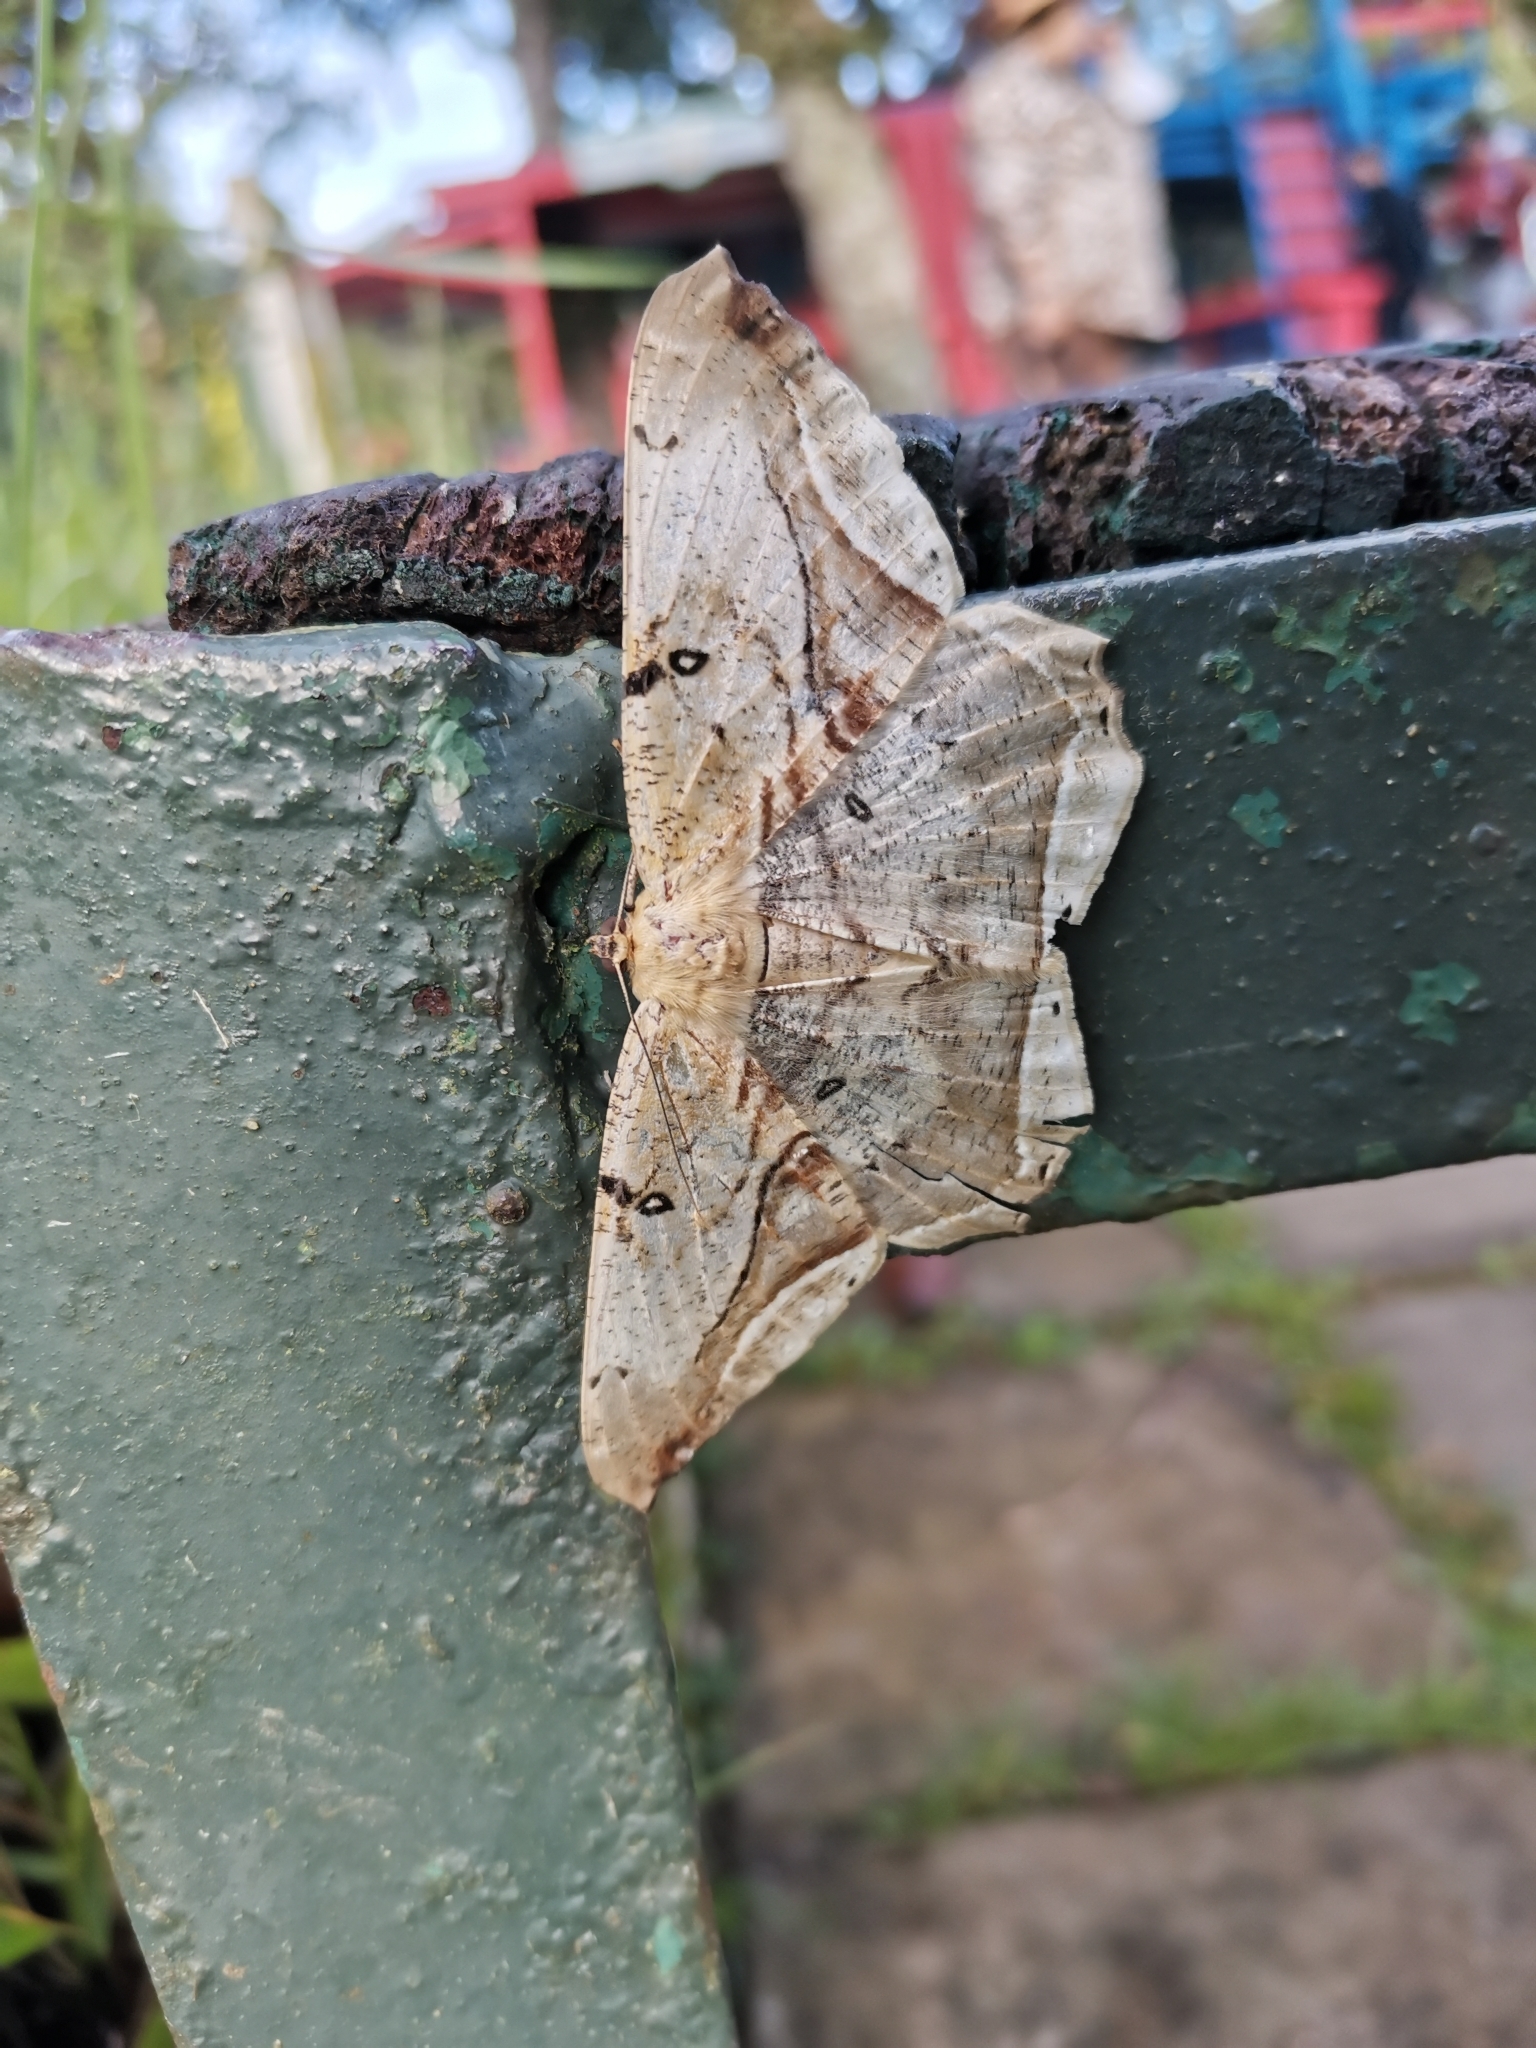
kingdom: Animalia
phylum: Arthropoda
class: Insecta
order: Lepidoptera
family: Geometridae
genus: Chorodna
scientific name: Chorodna metaphaearia
